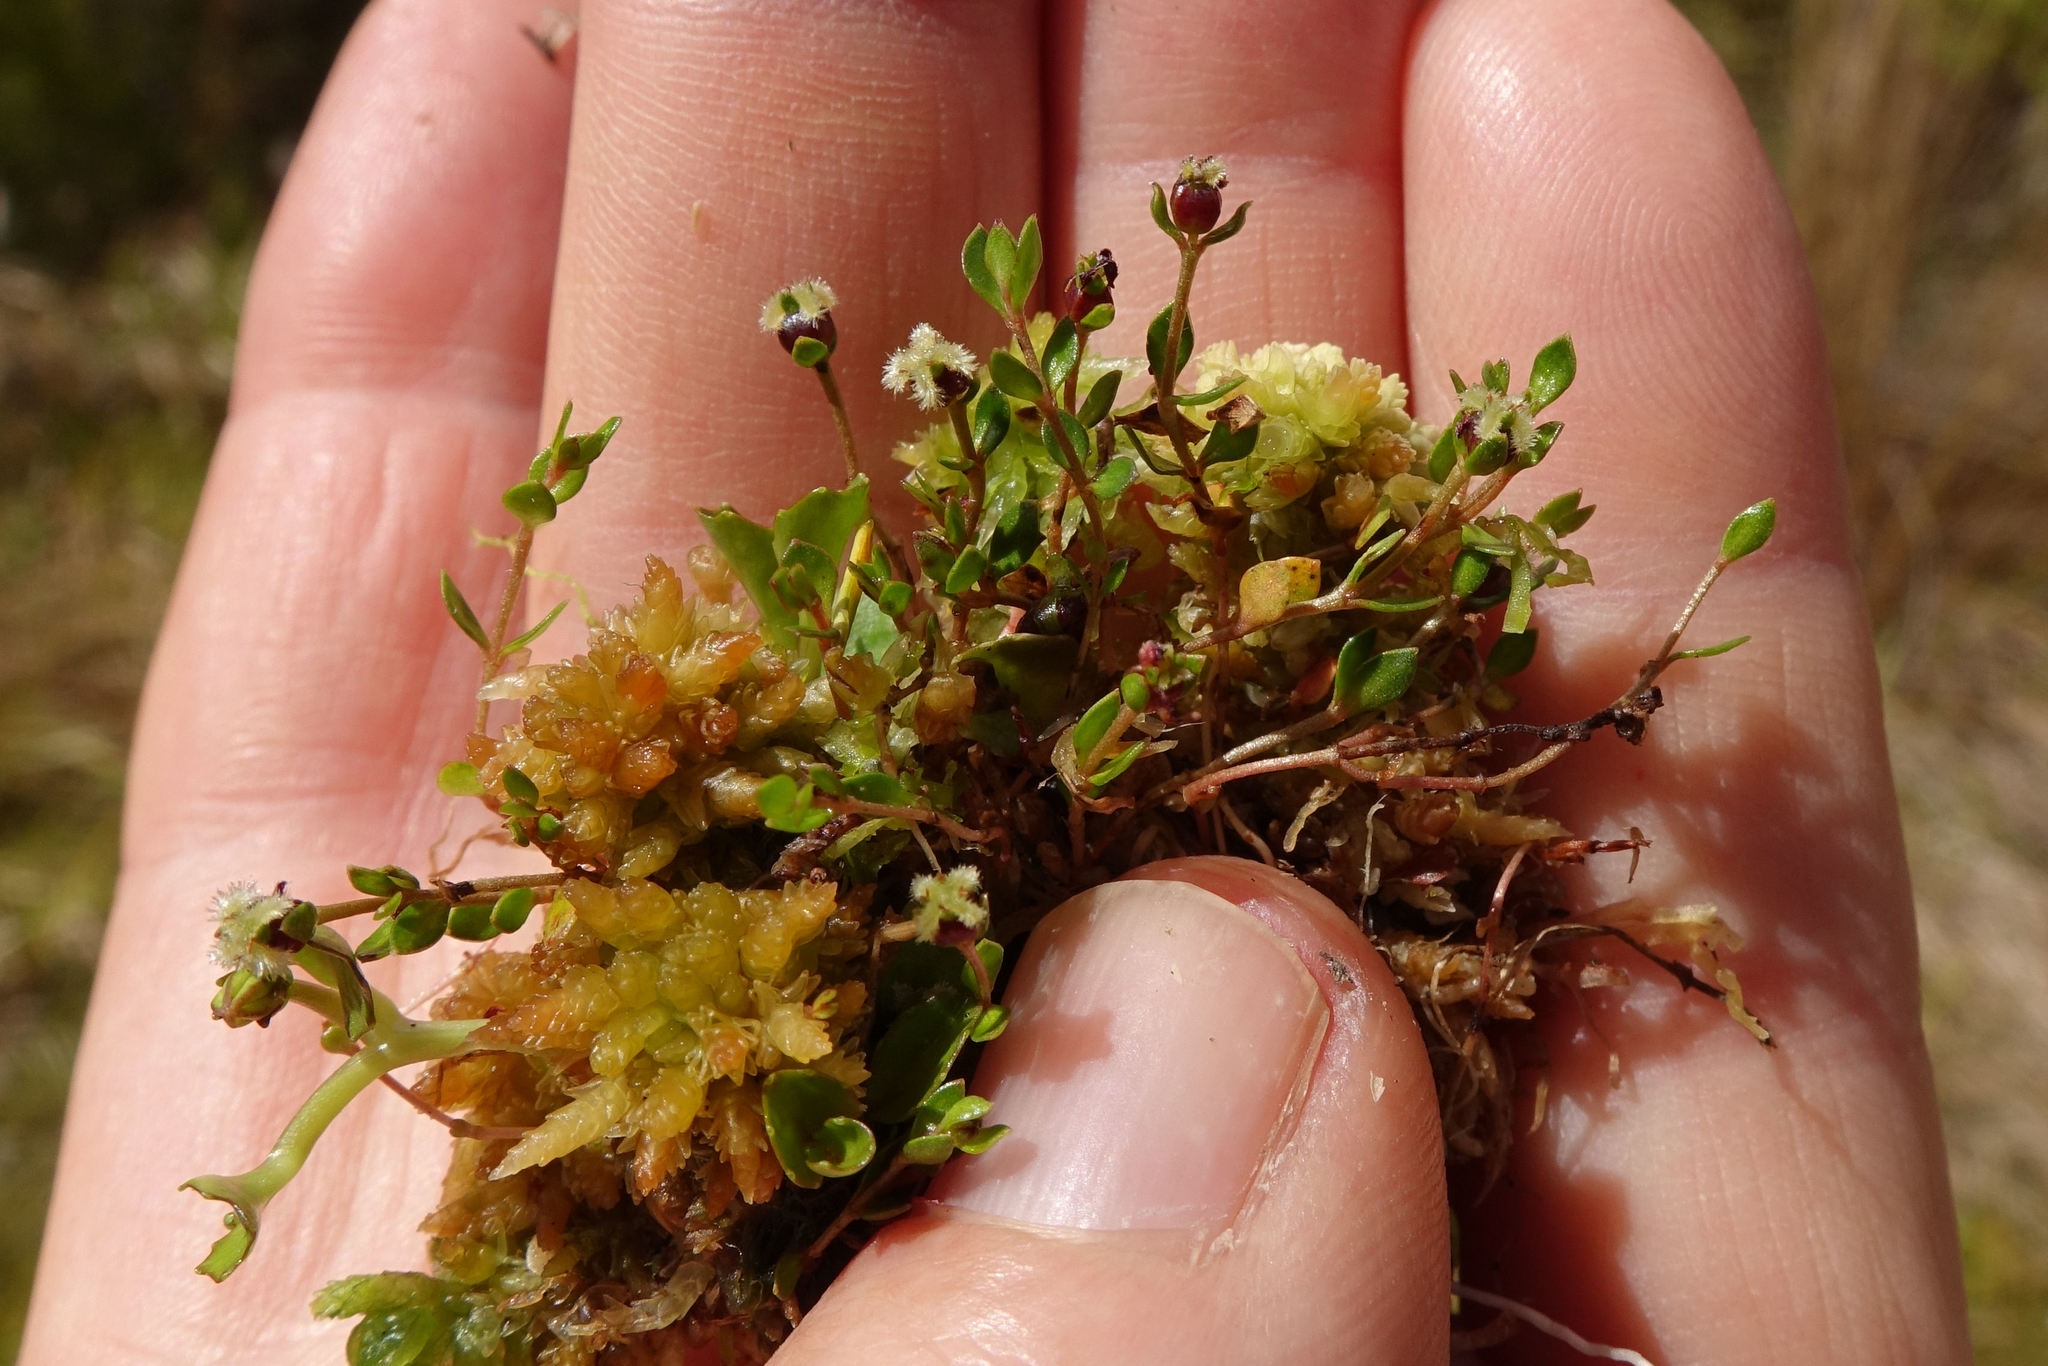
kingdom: Plantae
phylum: Tracheophyta
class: Magnoliopsida
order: Saxifragales
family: Haloragaceae
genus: Gonocarpus
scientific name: Gonocarpus micranthus
